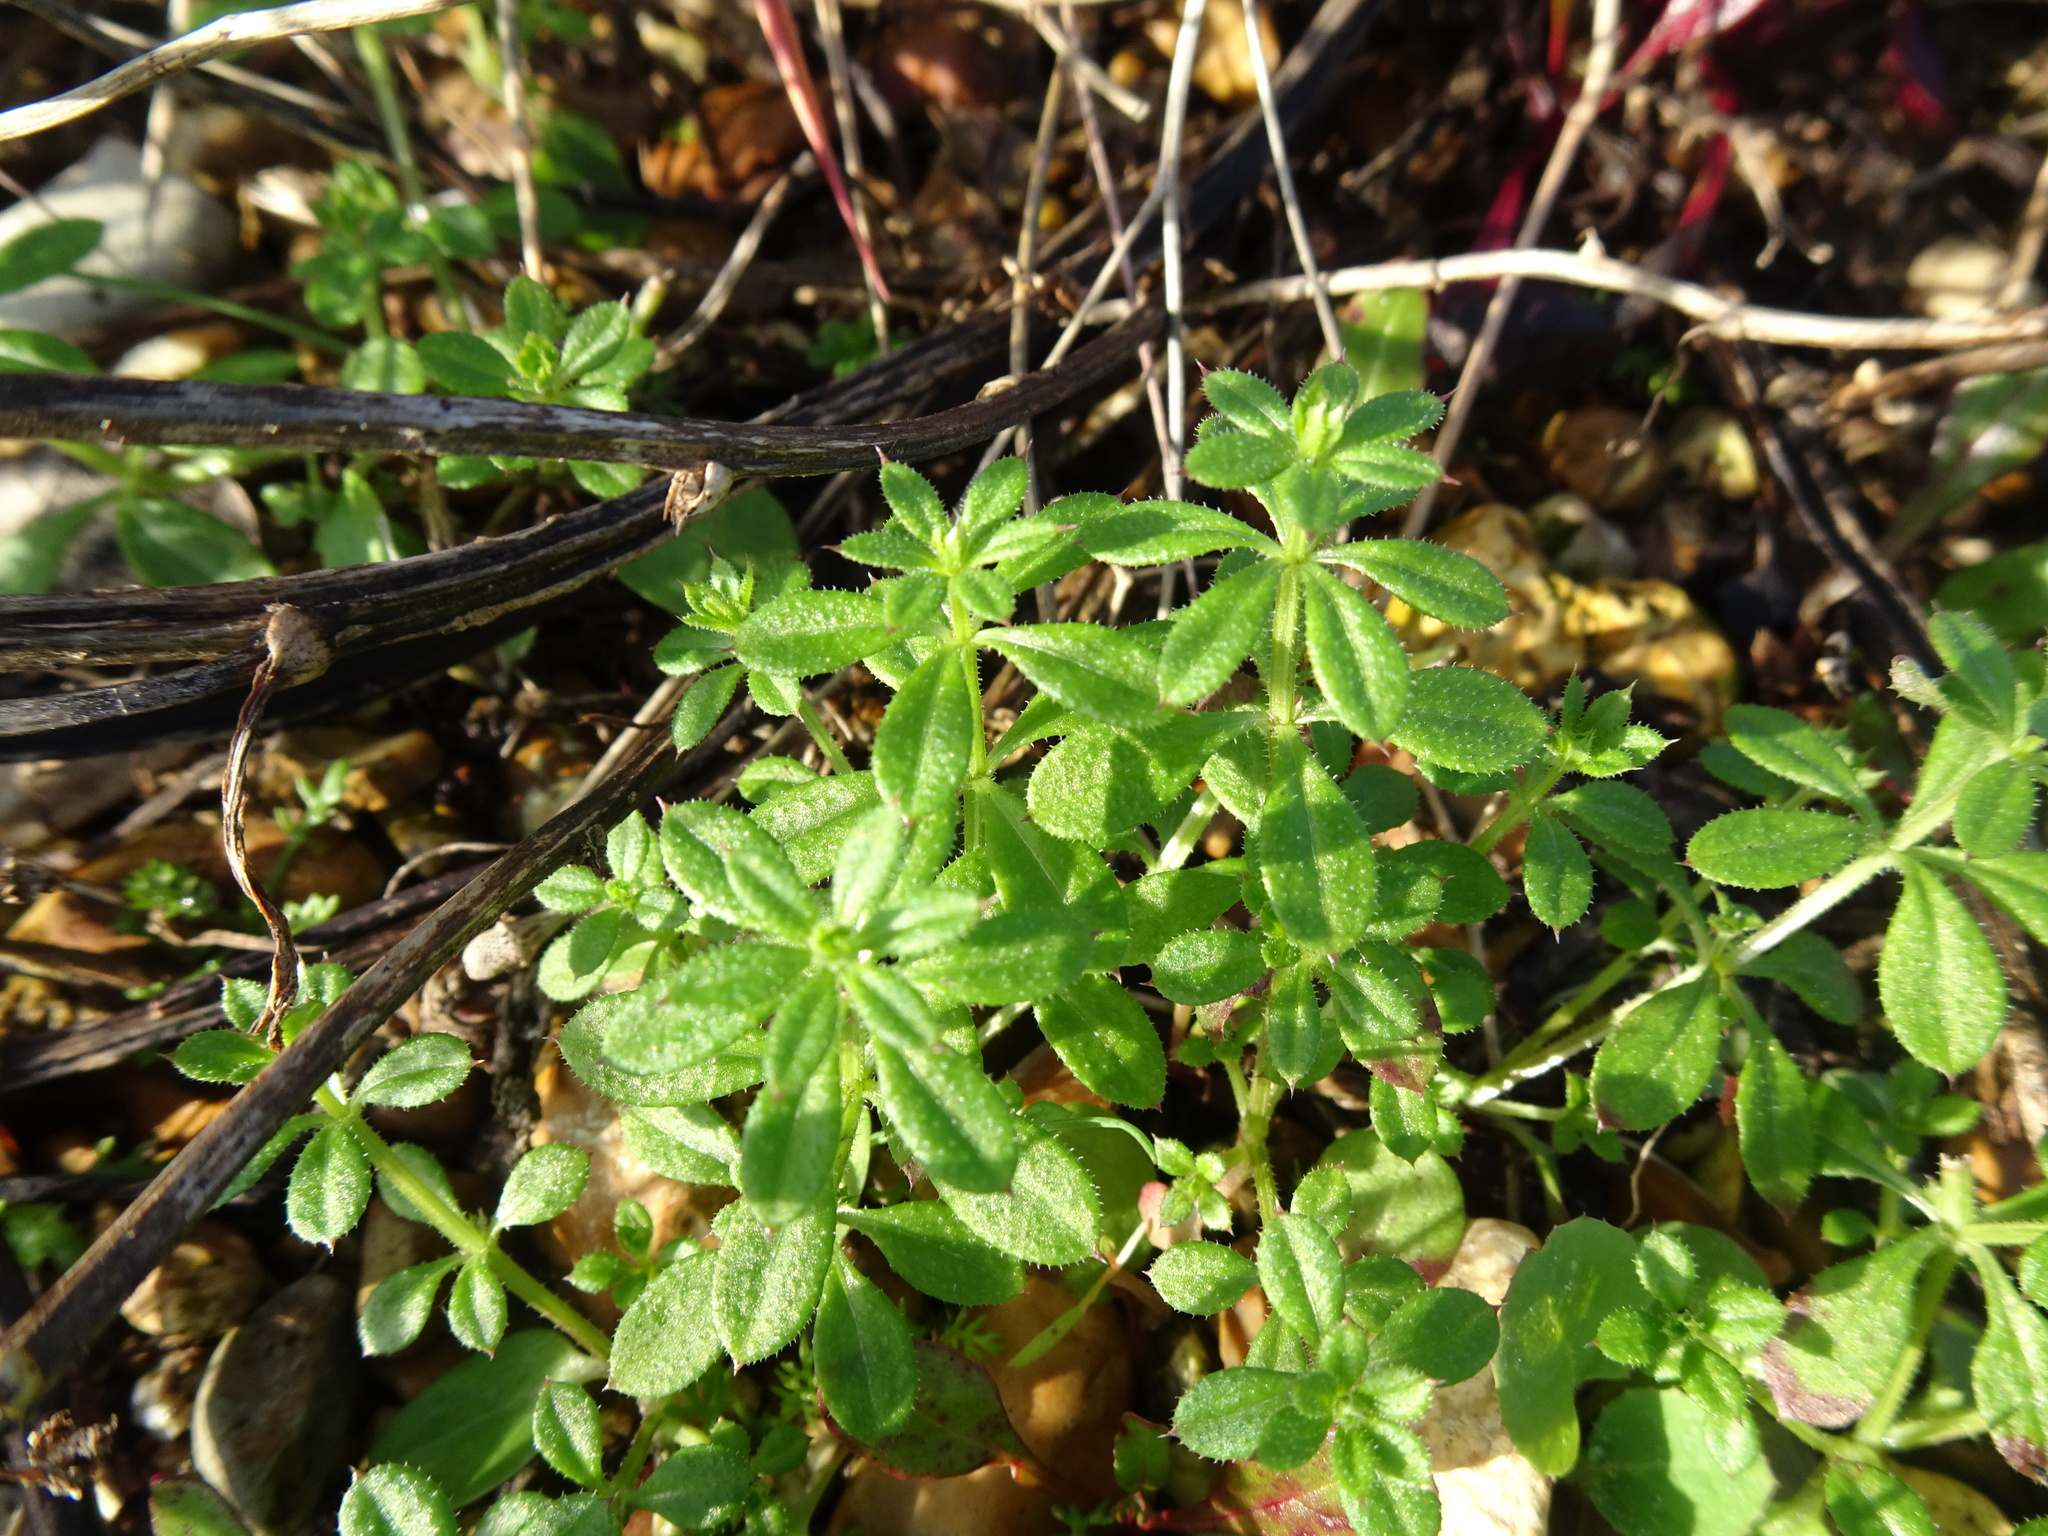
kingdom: Plantae
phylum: Tracheophyta
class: Magnoliopsida
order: Gentianales
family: Rubiaceae
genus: Galium
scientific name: Galium aparine
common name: Cleavers
